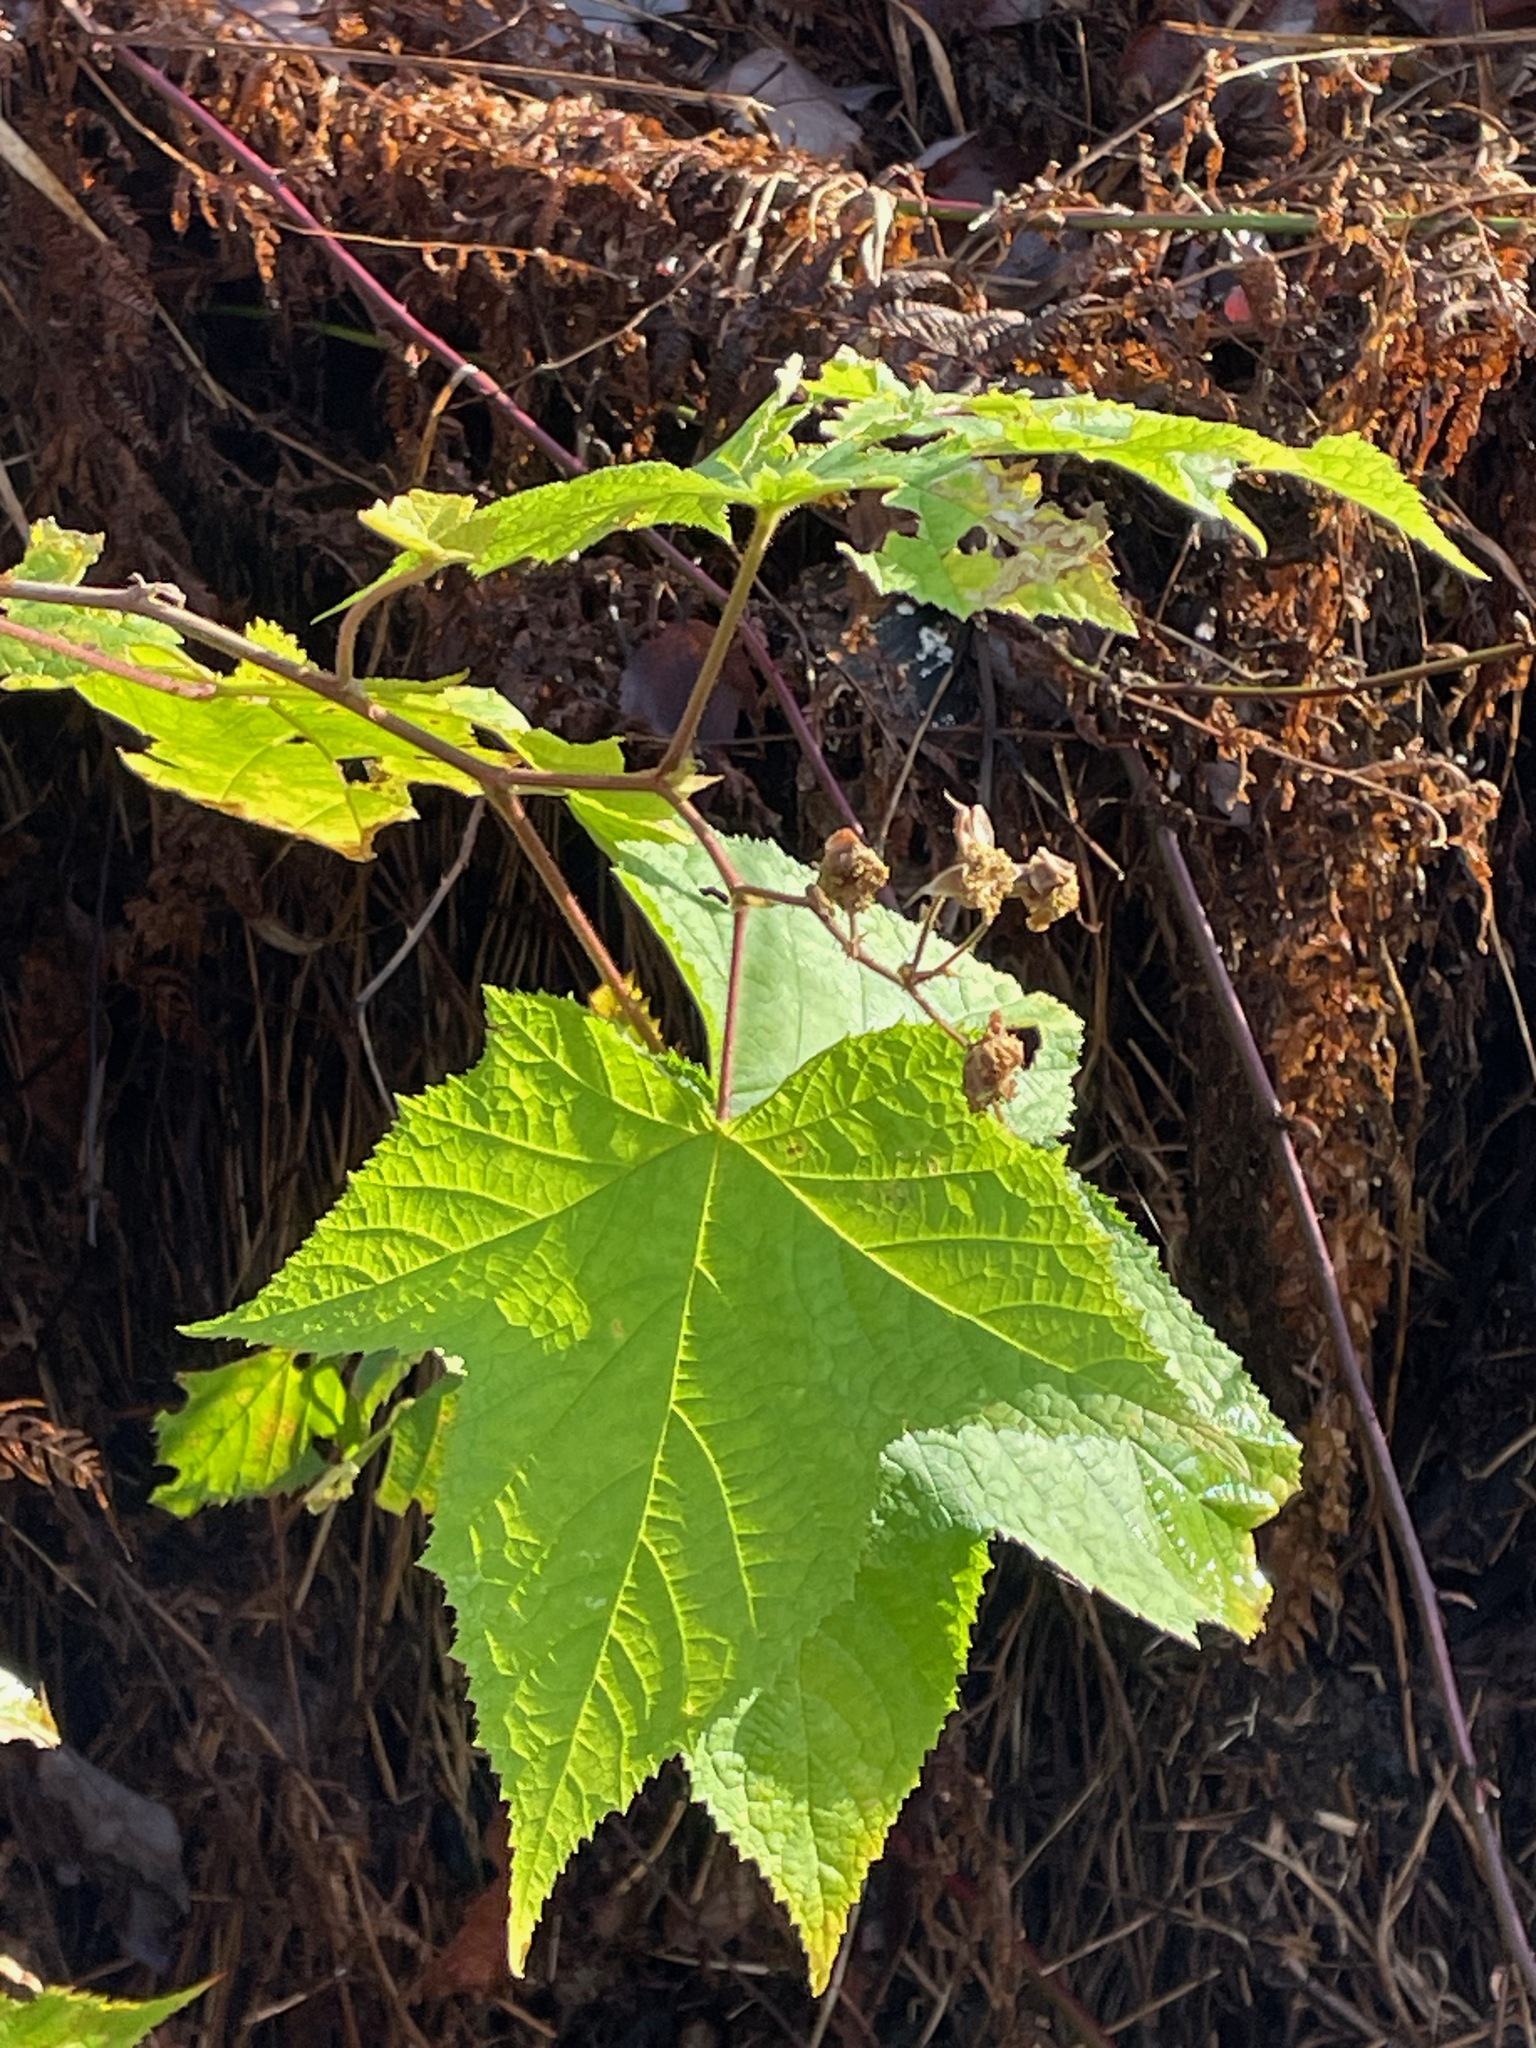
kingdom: Plantae
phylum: Tracheophyta
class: Magnoliopsida
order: Rosales
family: Rosaceae
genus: Rubus
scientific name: Rubus odoratus
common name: Purple-flowered raspberry
